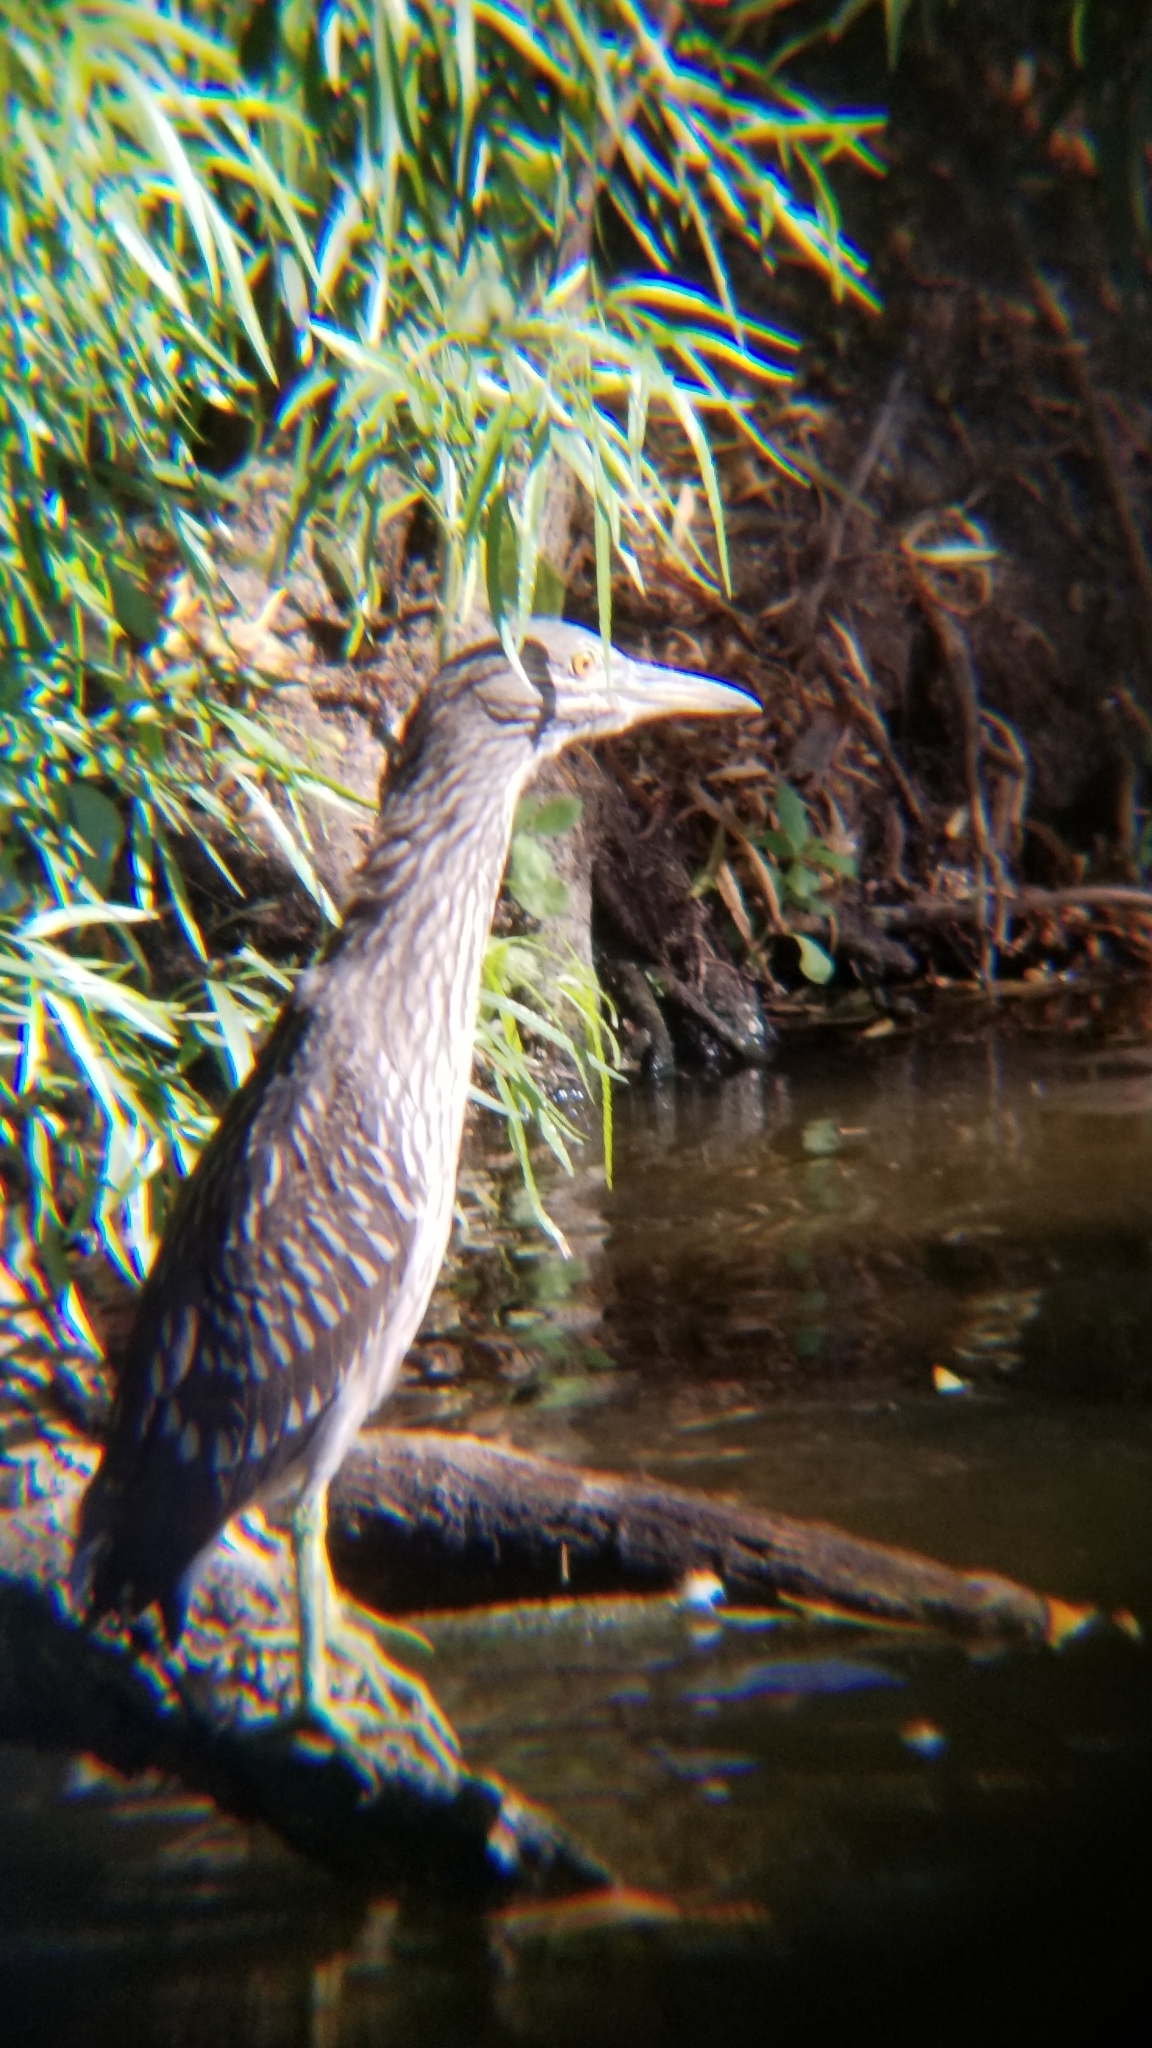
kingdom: Animalia
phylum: Chordata
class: Aves
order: Pelecaniformes
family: Ardeidae
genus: Nycticorax
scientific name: Nycticorax nycticorax
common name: Black-crowned night heron
